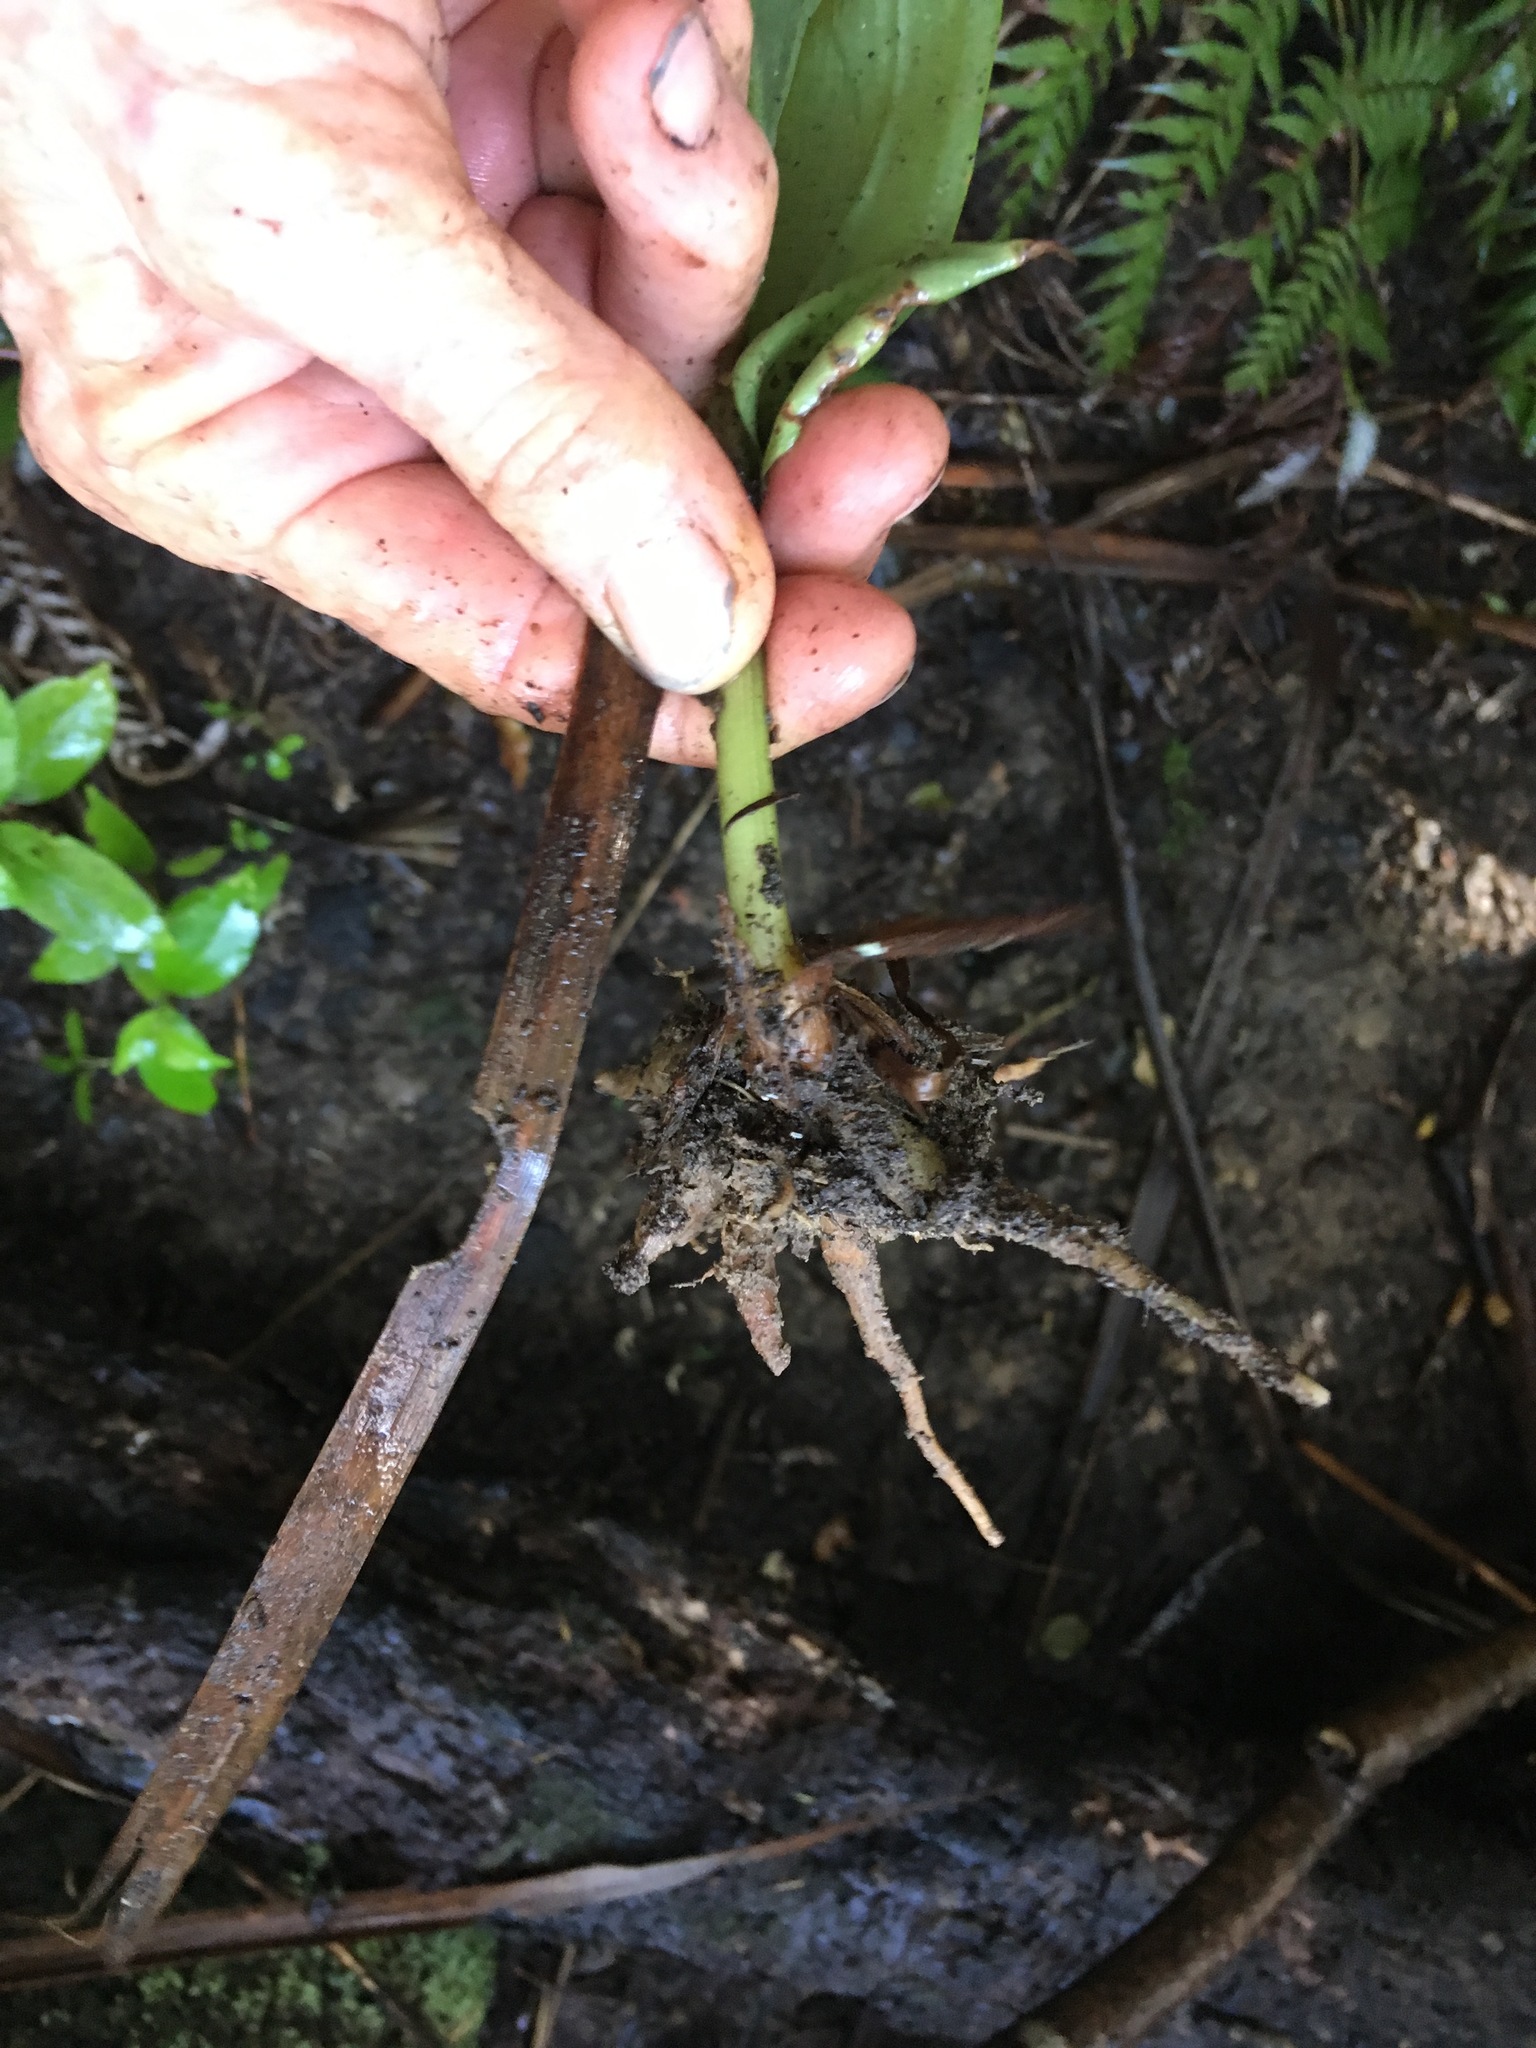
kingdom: Plantae
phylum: Tracheophyta
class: Liliopsida
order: Zingiberales
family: Zingiberaceae
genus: Hedychium
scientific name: Hedychium gardnerianum
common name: Himalayan ginger
